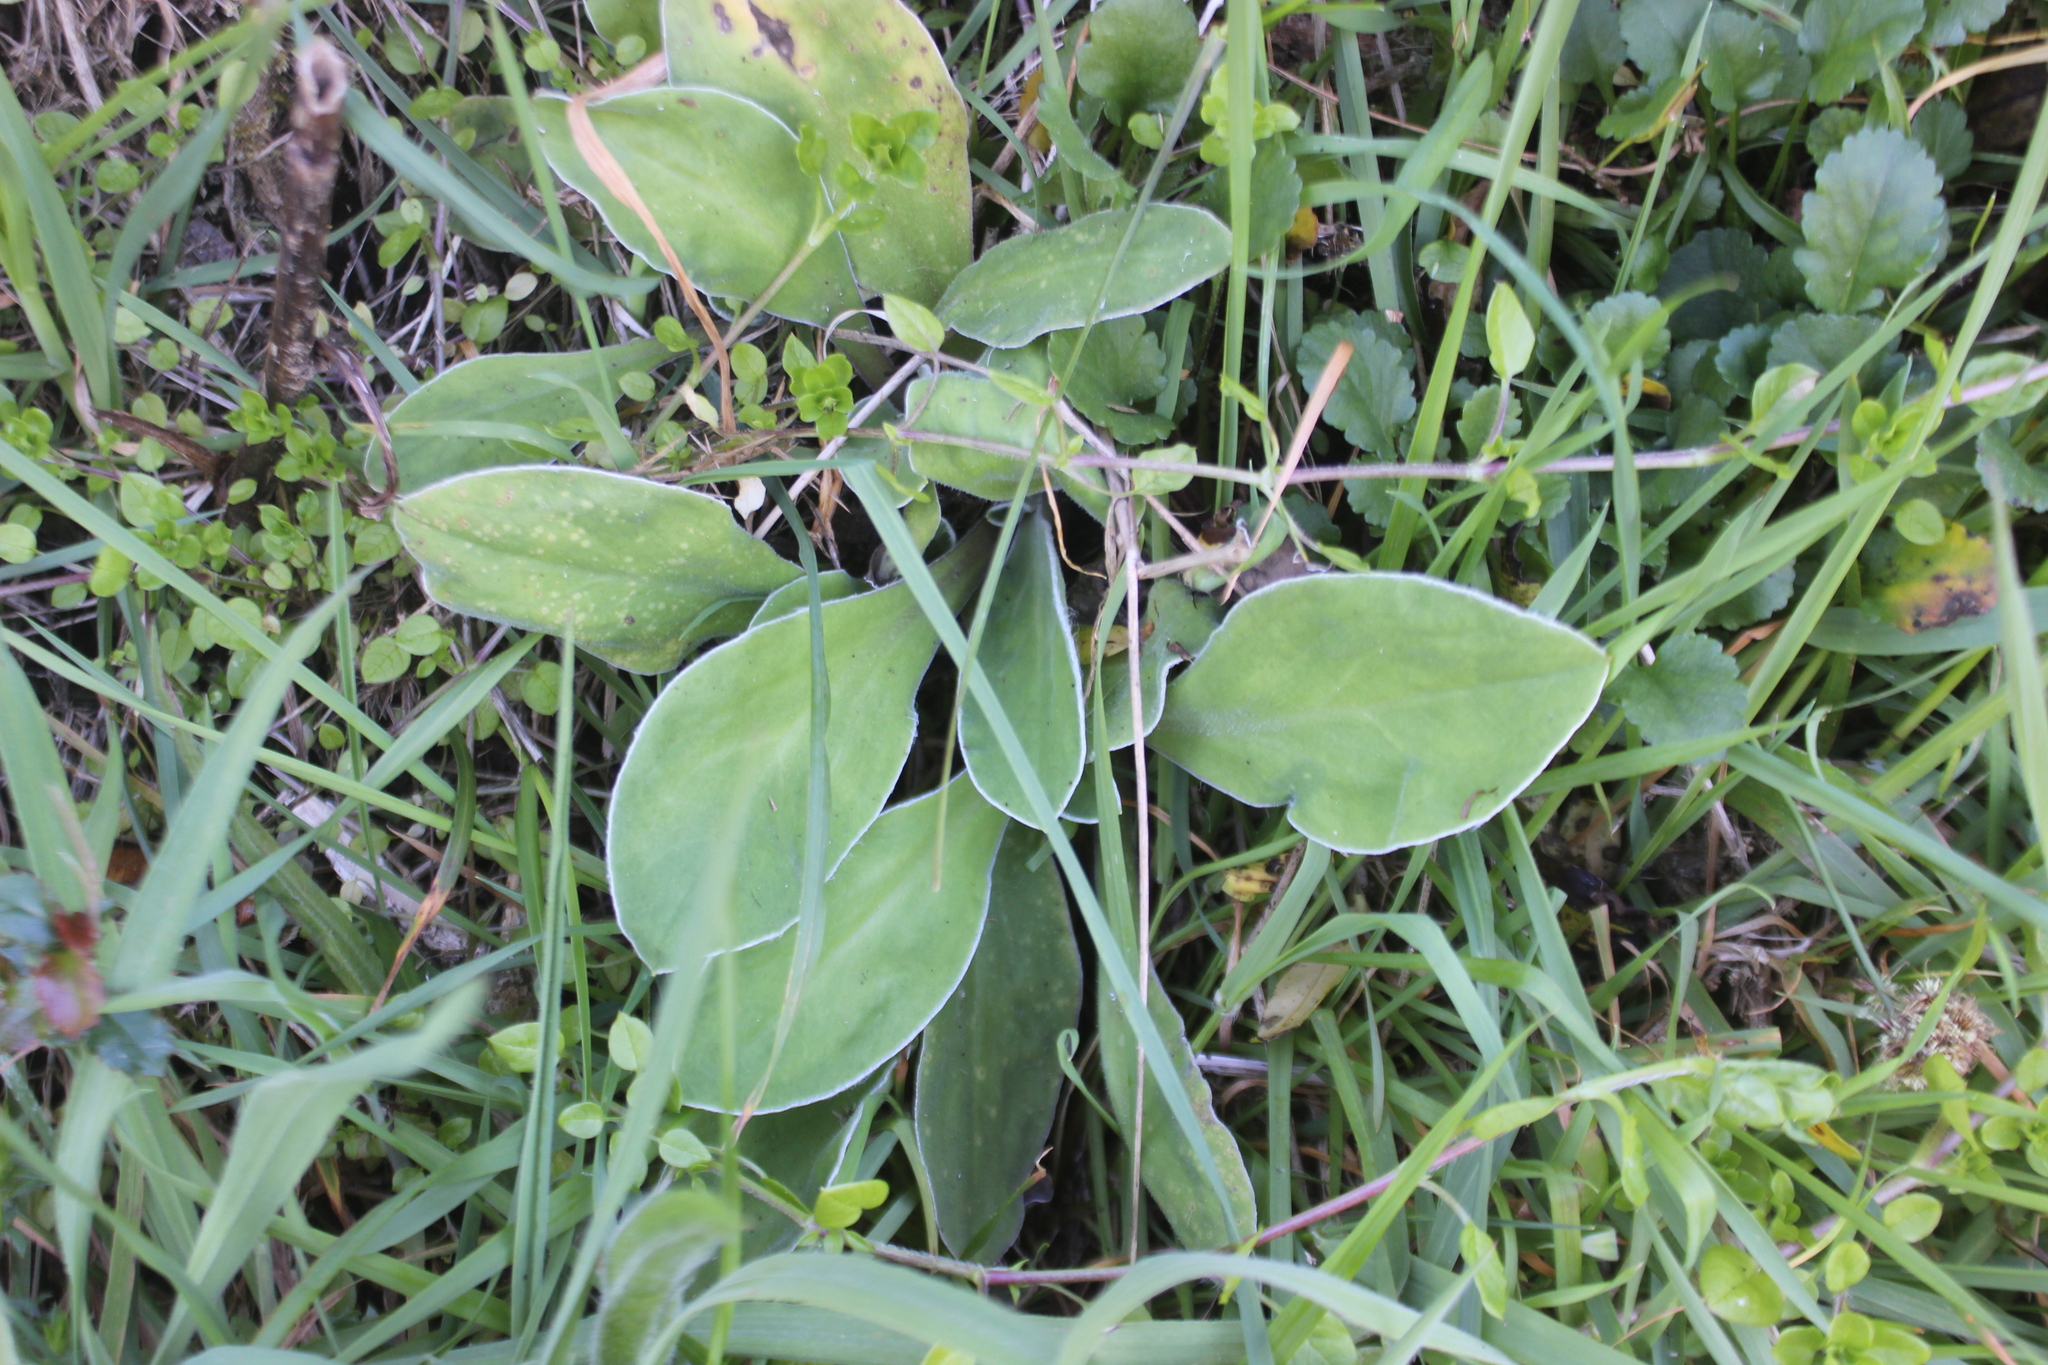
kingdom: Plantae
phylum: Tracheophyta
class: Magnoliopsida
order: Asterales
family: Asteraceae
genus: Craspedia
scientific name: Craspedia uniflora
